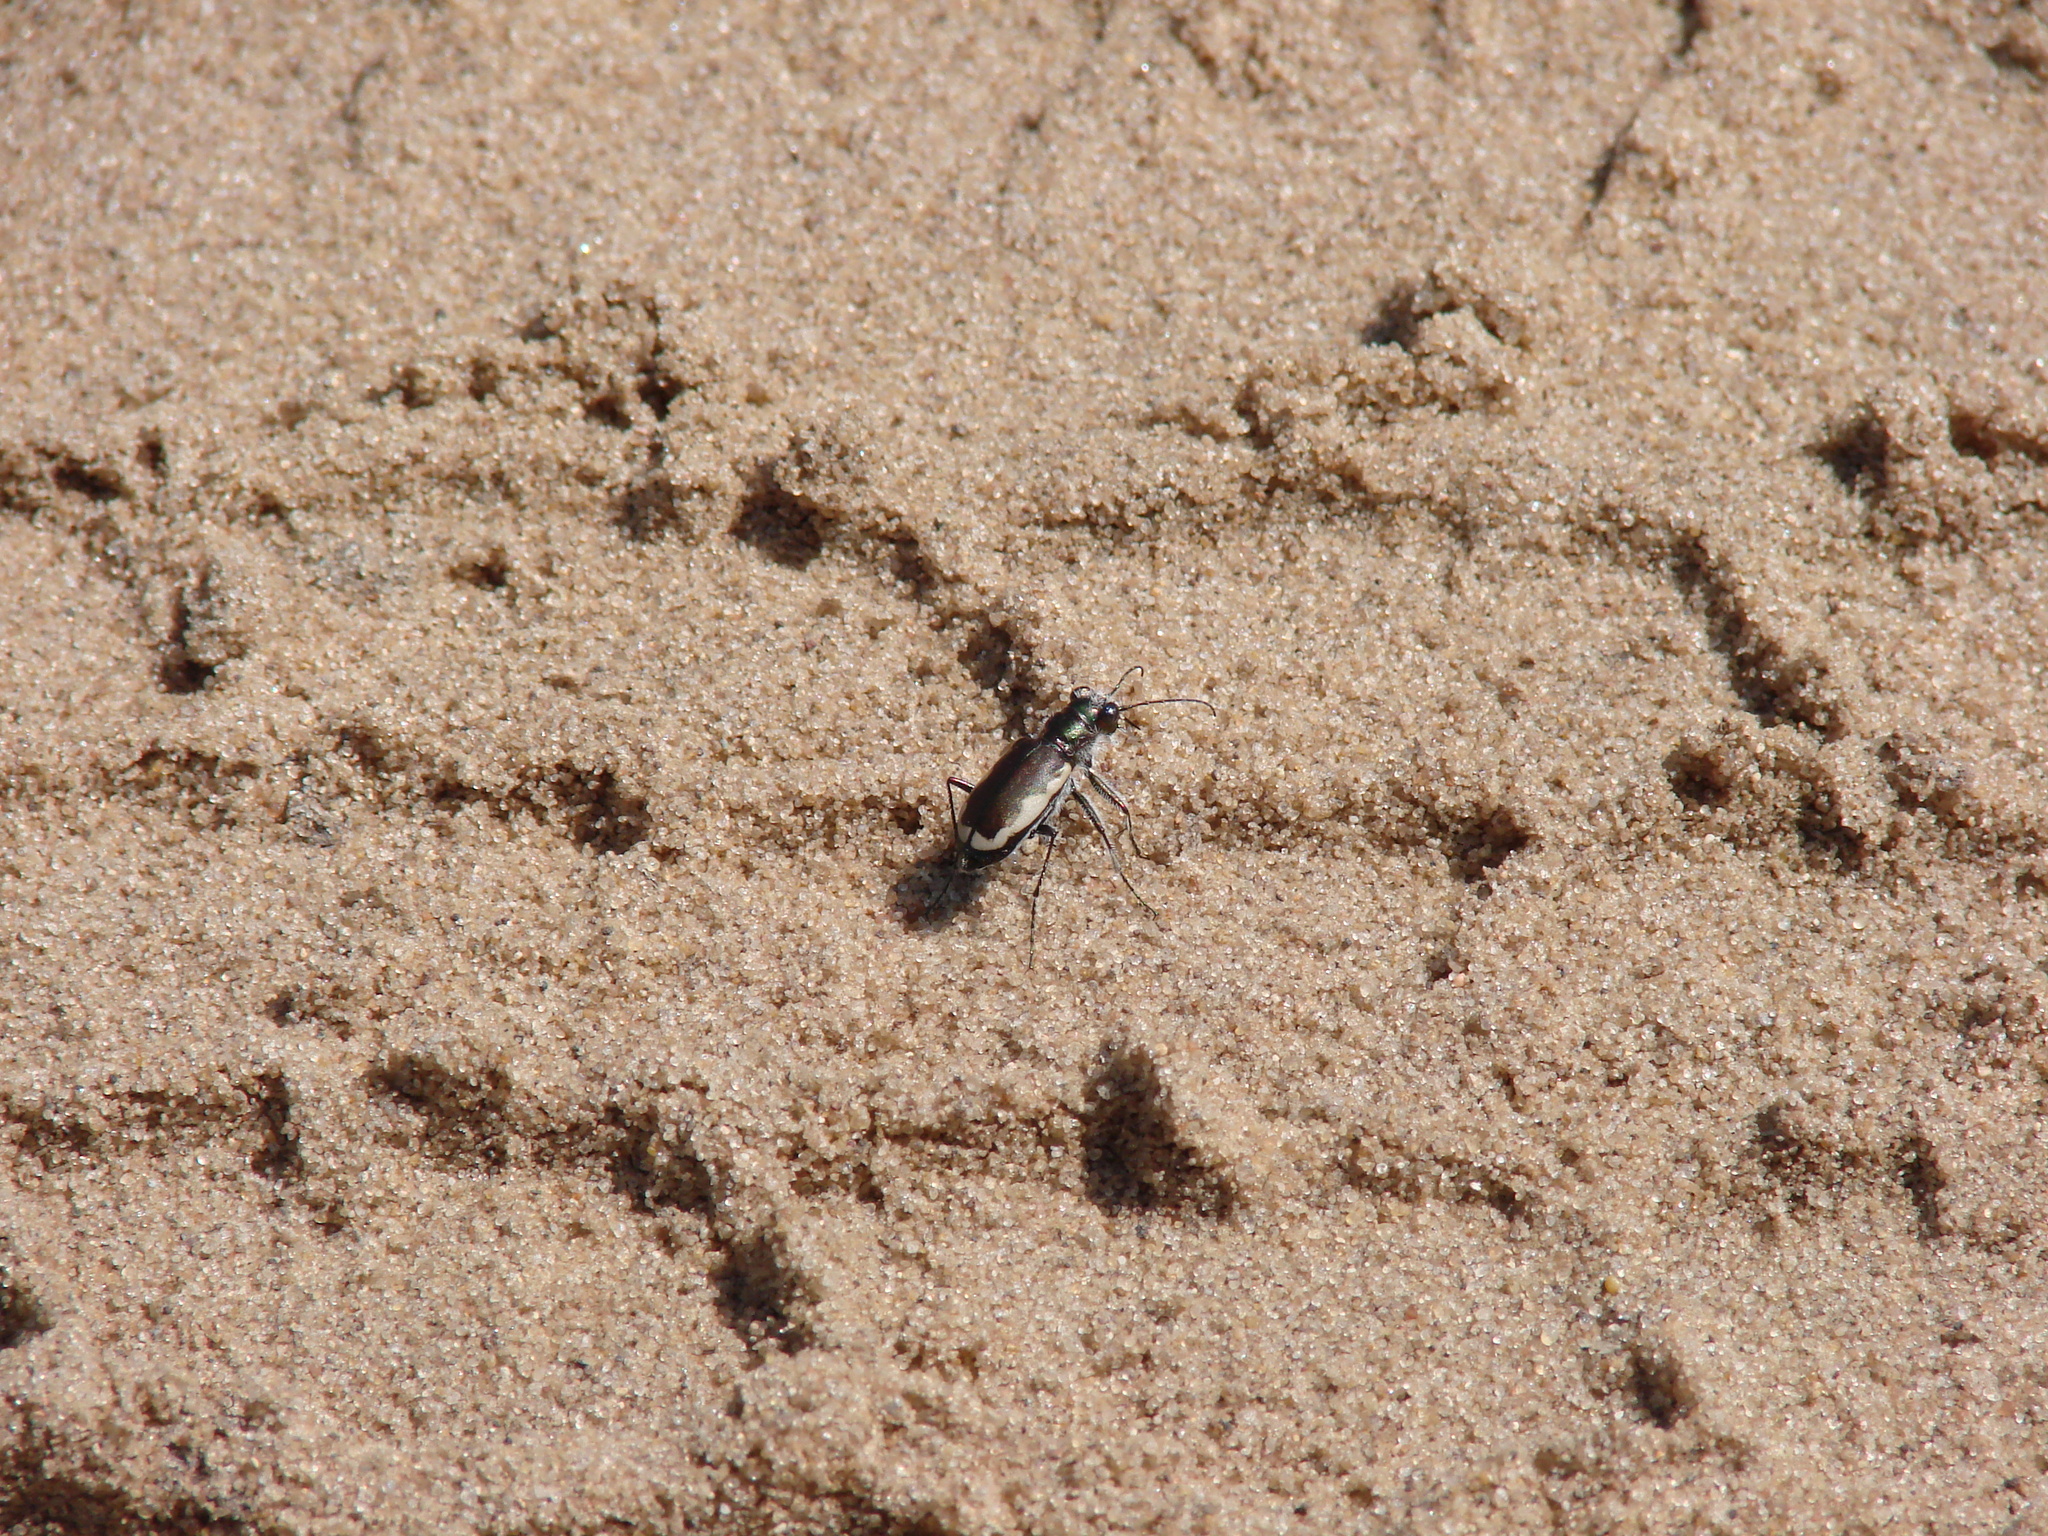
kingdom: Animalia
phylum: Arthropoda
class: Insecta
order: Coleoptera
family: Carabidae
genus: Cicindela
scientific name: Cicindela scutellaris
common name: Festive tiger beetle
